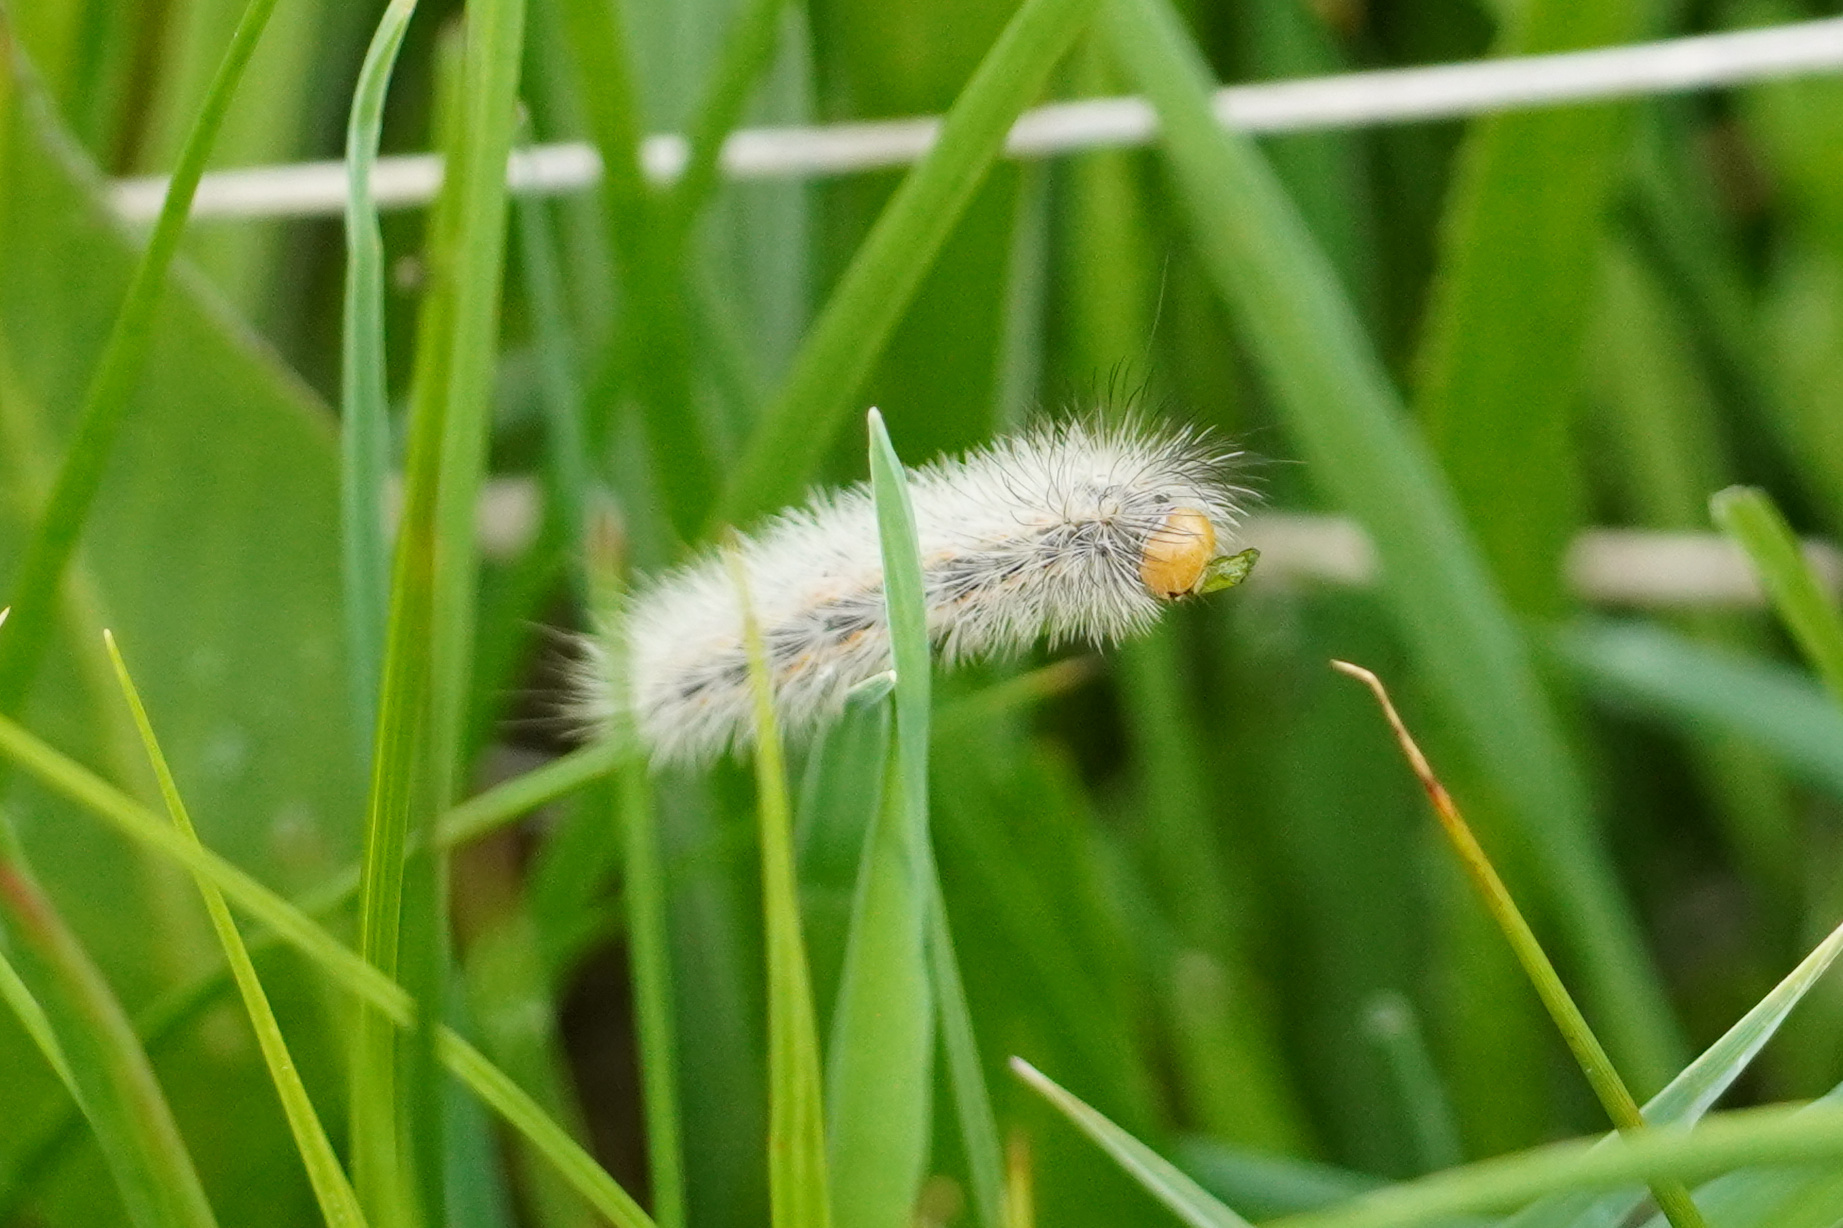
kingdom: Animalia
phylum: Arthropoda
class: Insecta
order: Lepidoptera
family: Erebidae
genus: Cisseps
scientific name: Cisseps fulvicollis
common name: Yellow-collared scape moth
